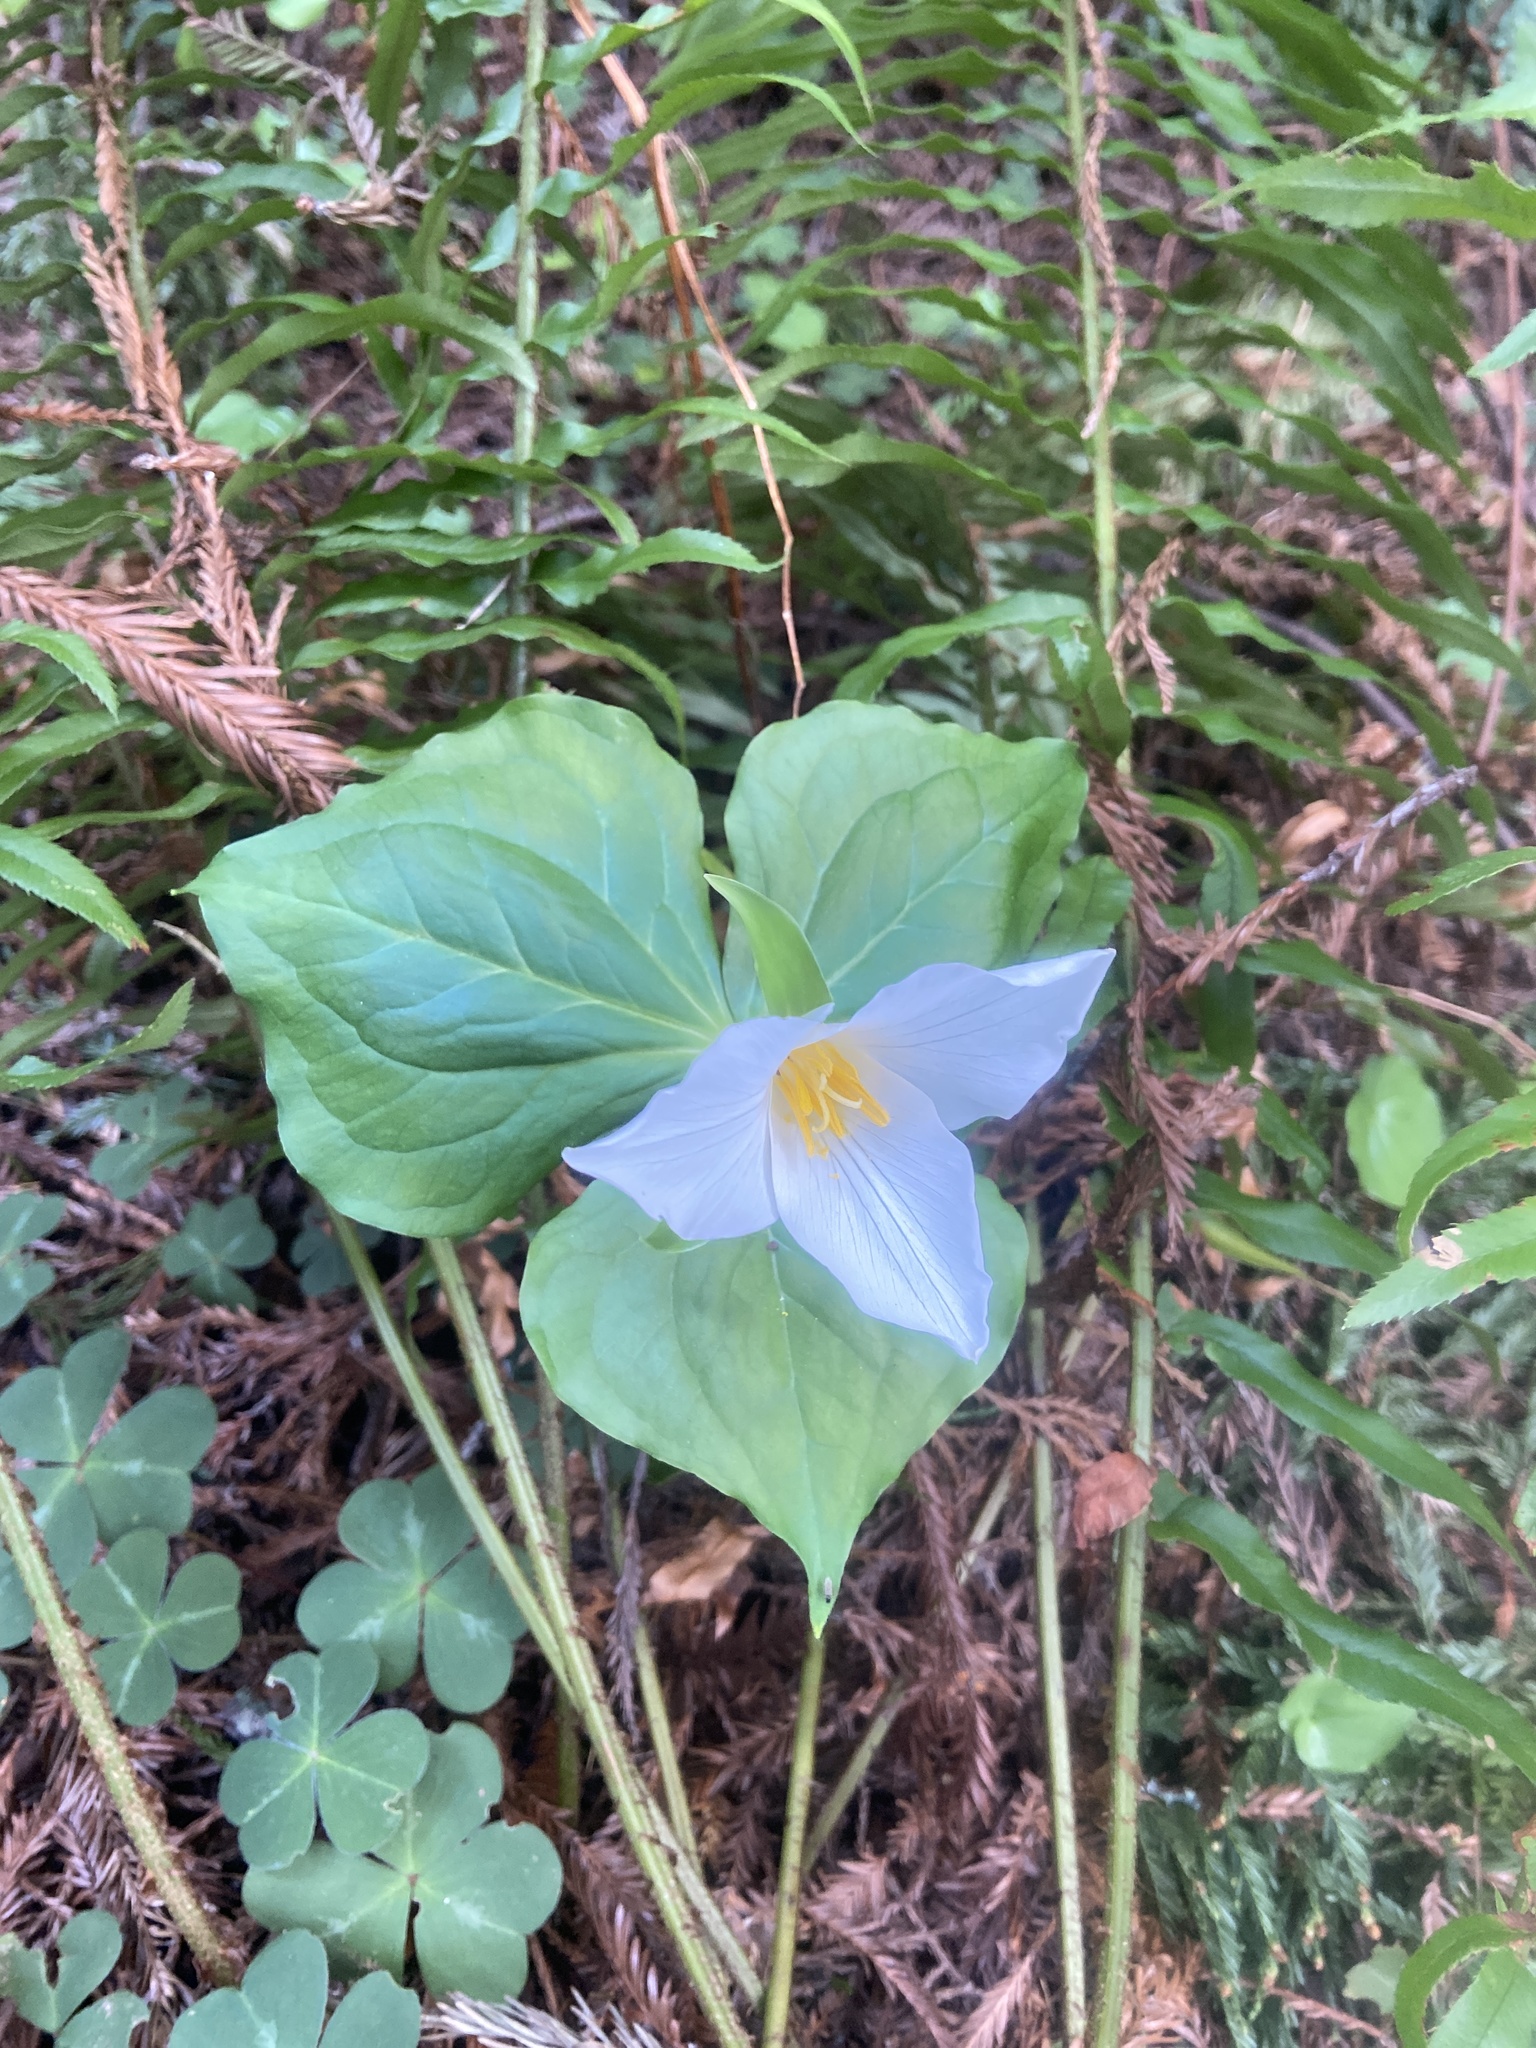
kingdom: Plantae
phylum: Tracheophyta
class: Liliopsida
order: Liliales
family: Melanthiaceae
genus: Trillium
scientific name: Trillium ovatum
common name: Pacific trillium
